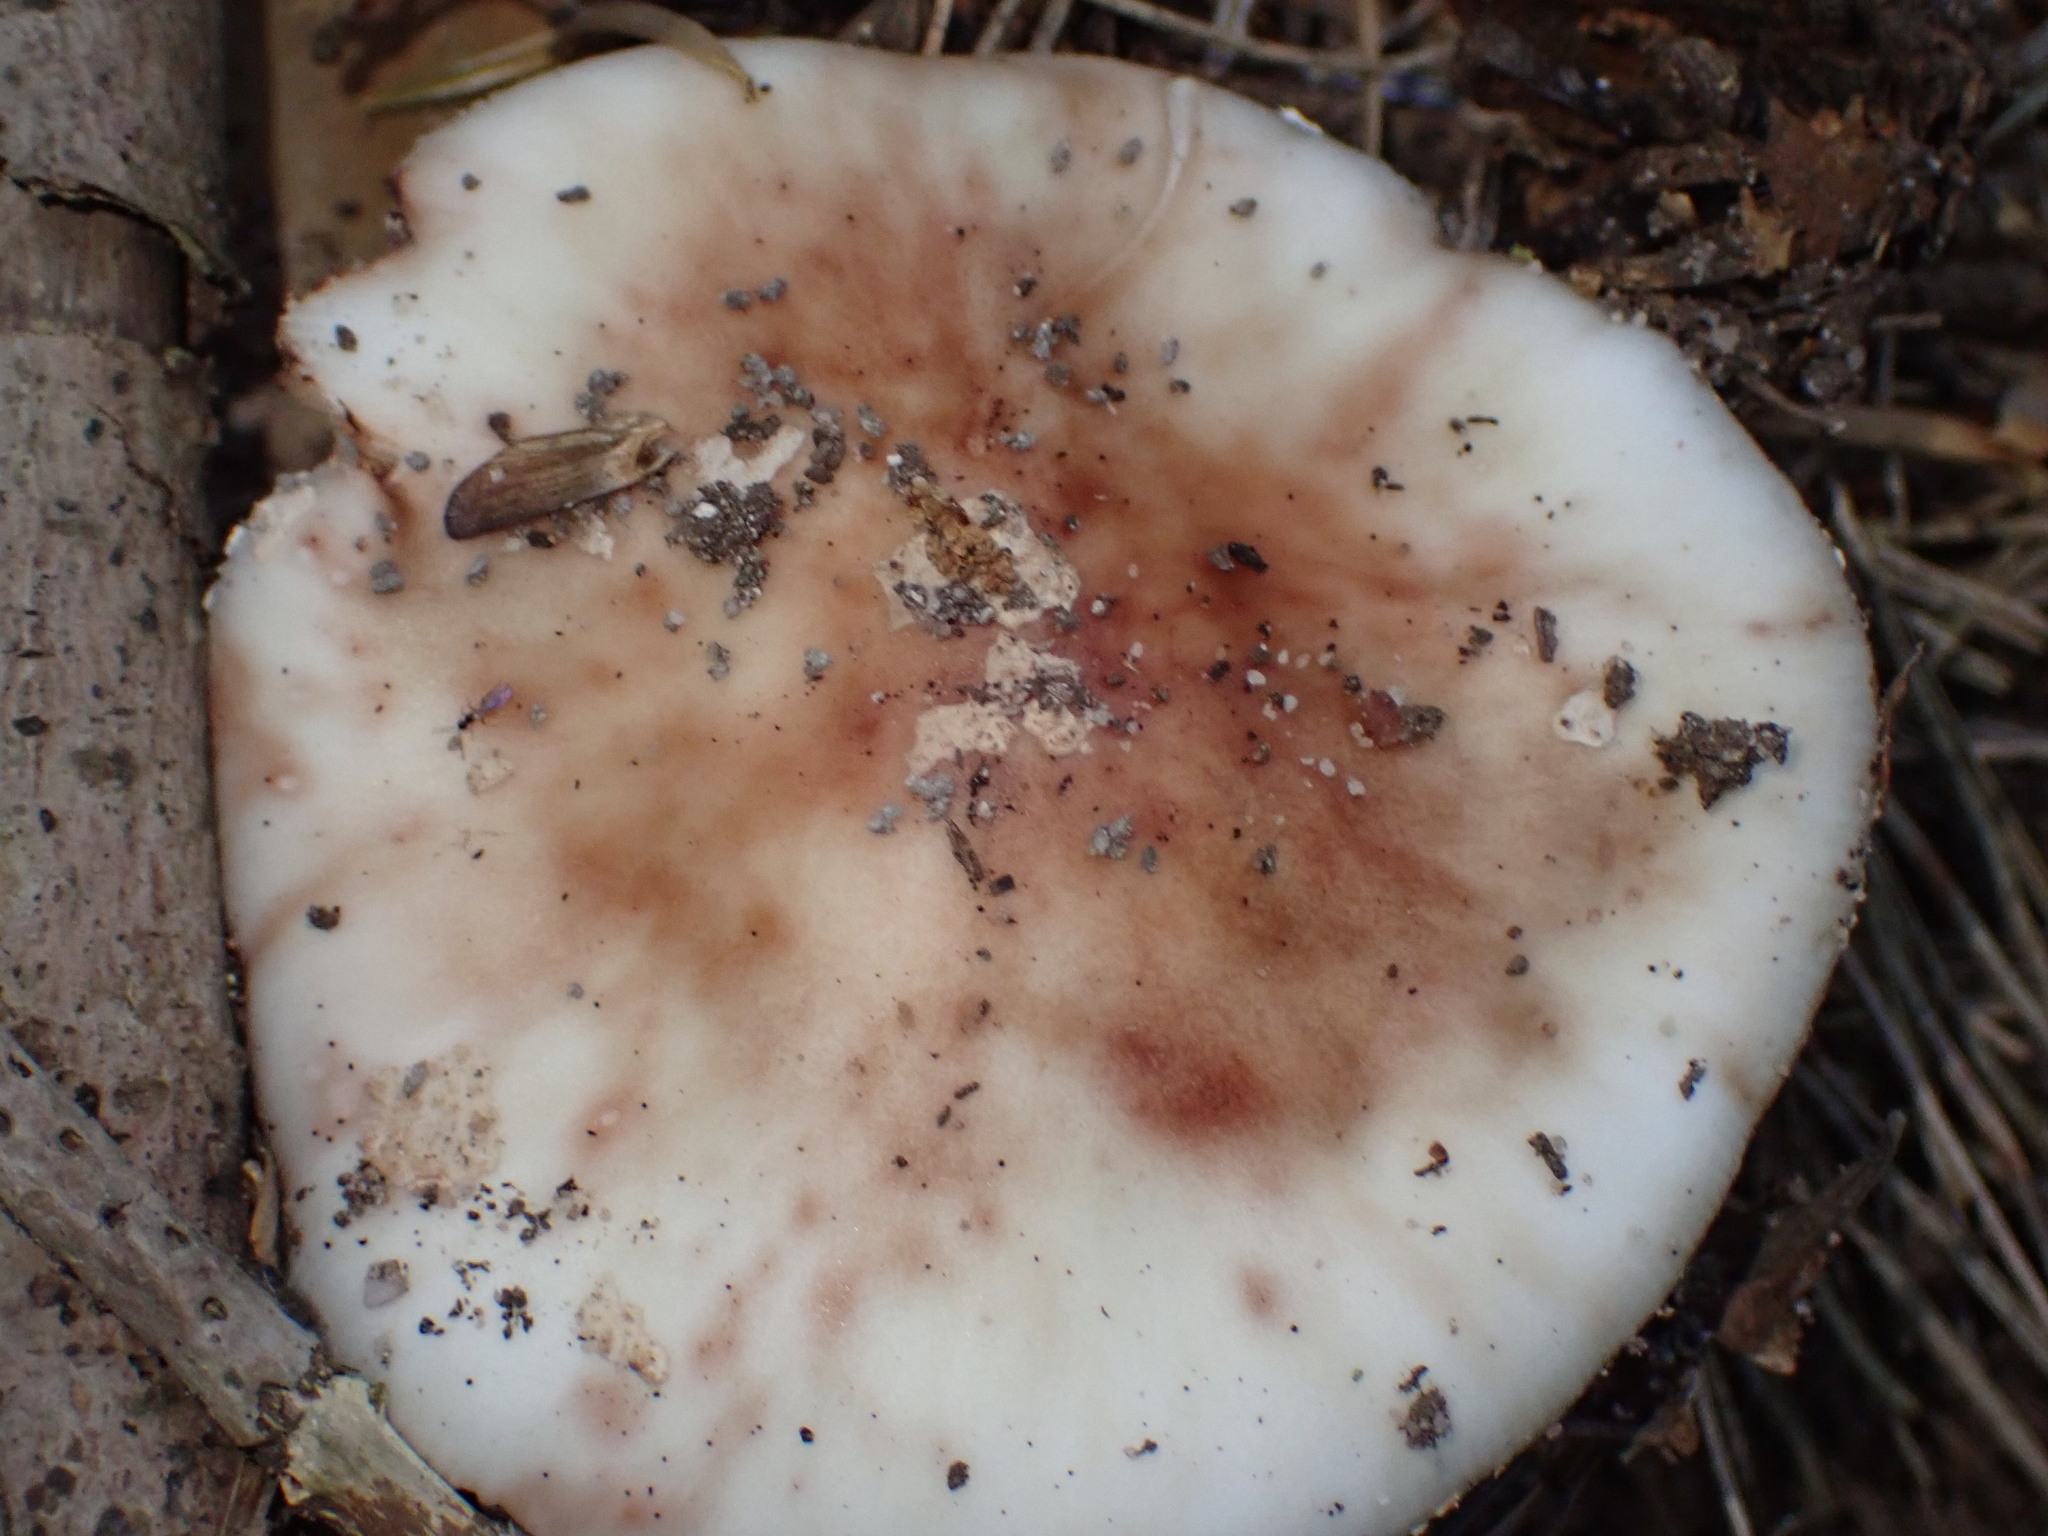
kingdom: Fungi
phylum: Basidiomycota
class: Agaricomycetes
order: Agaricales
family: Amanitaceae
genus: Amanita
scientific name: Amanita rubescens
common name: Blusher
